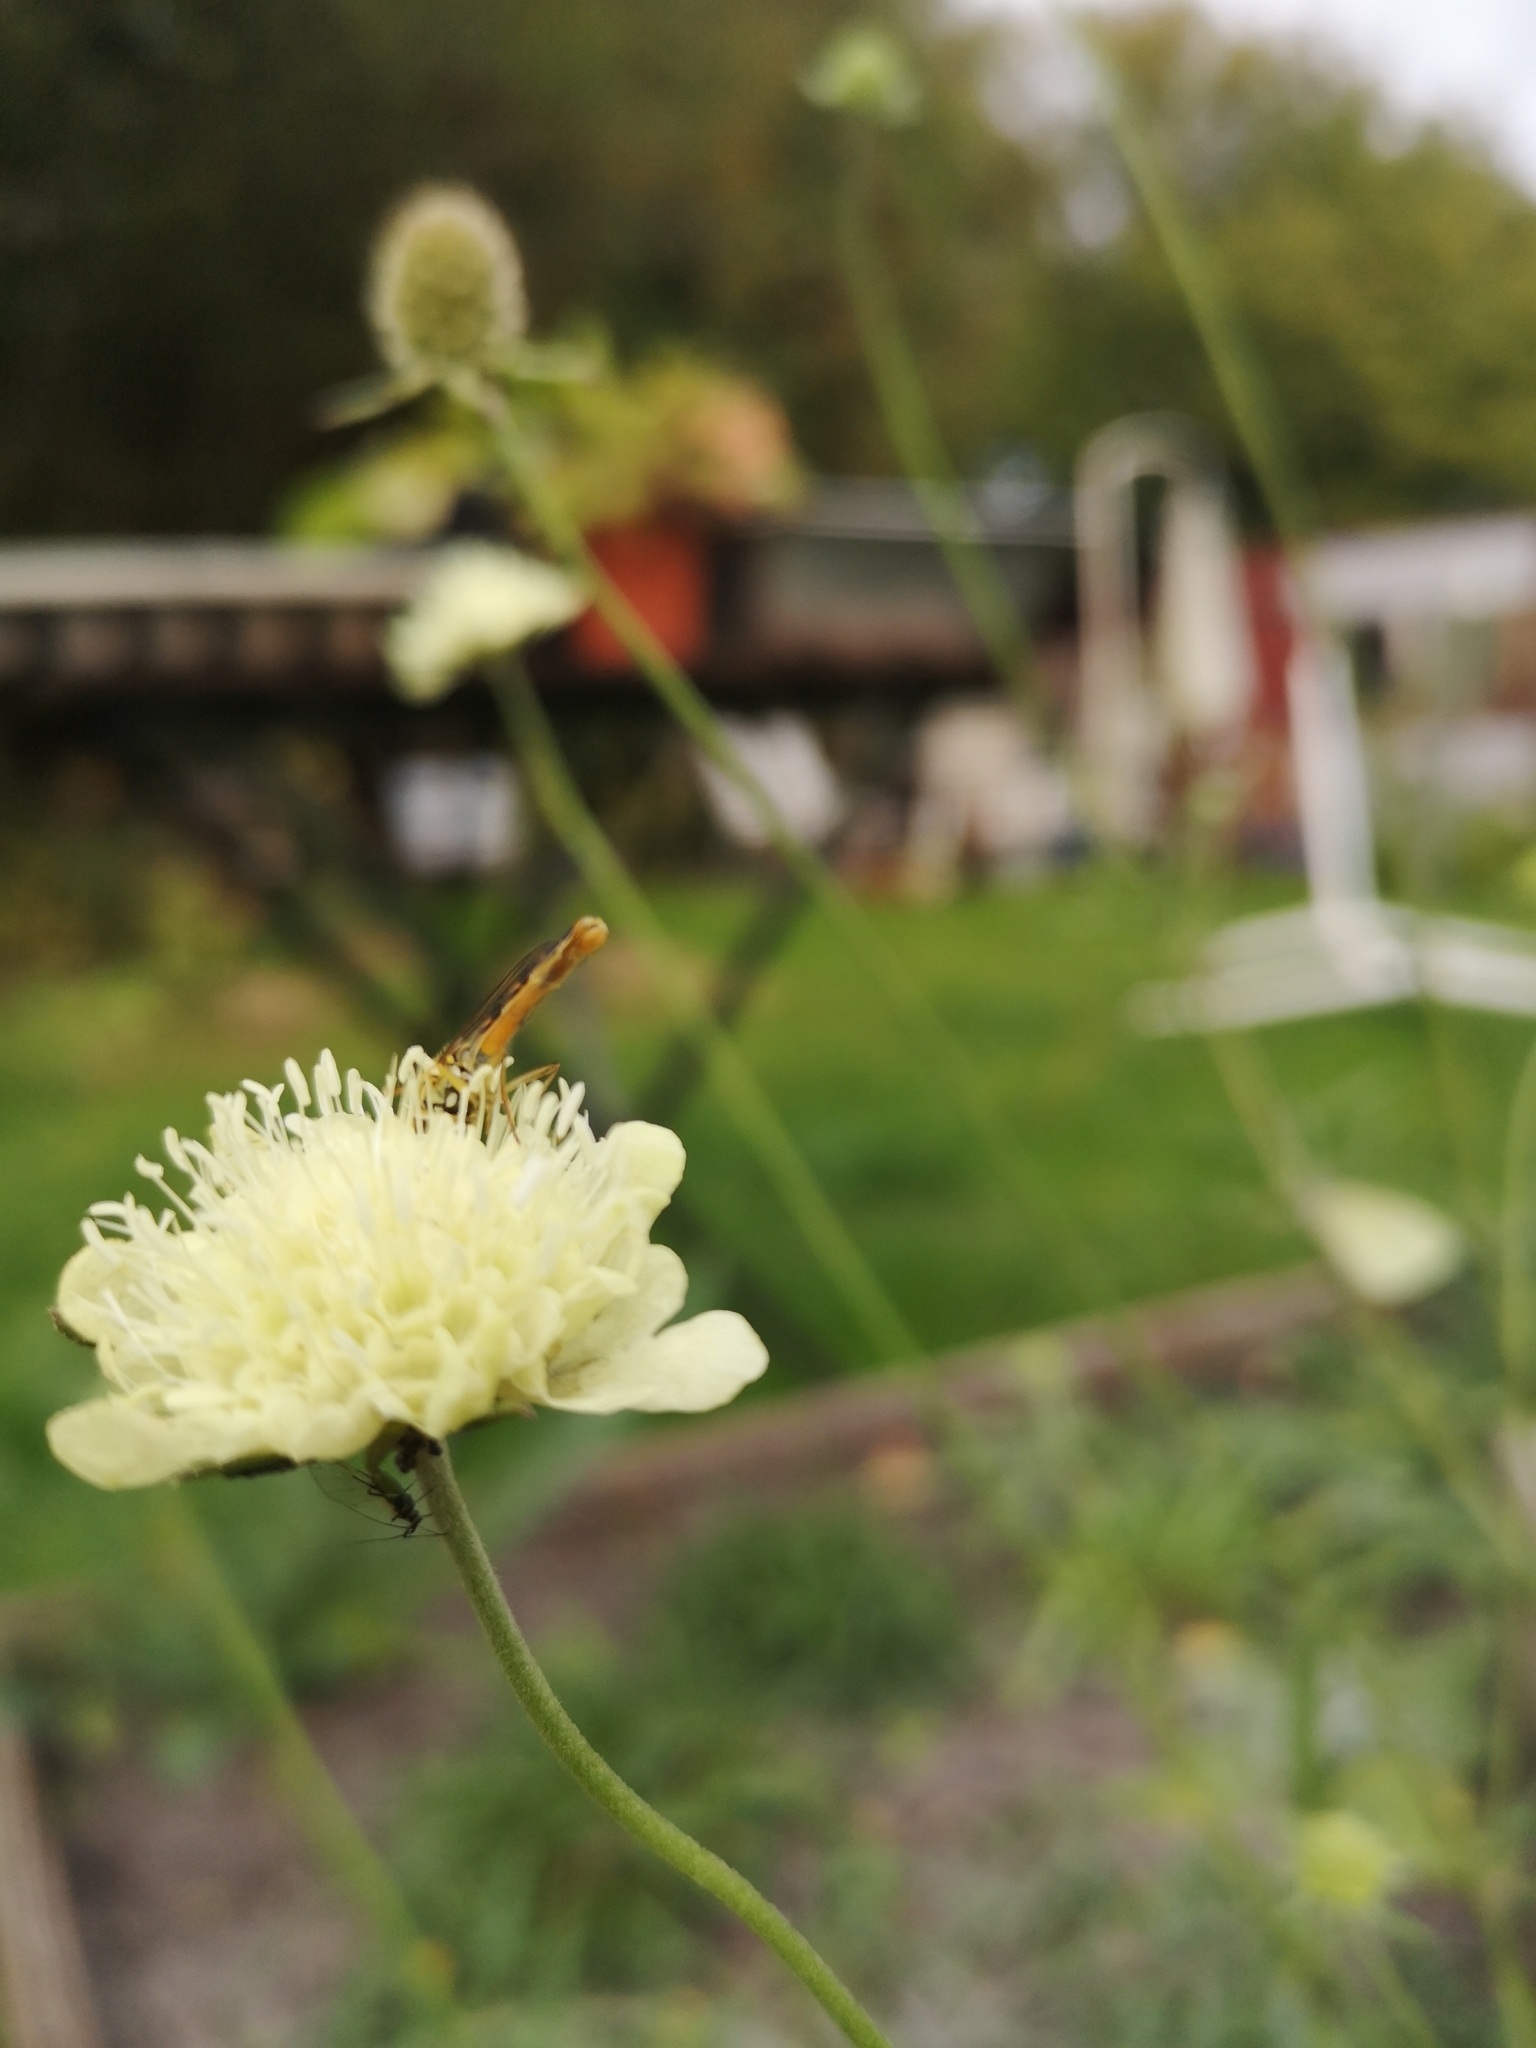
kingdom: Animalia
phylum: Arthropoda
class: Insecta
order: Diptera
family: Syrphidae
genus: Sphaerophoria
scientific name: Sphaerophoria scripta
